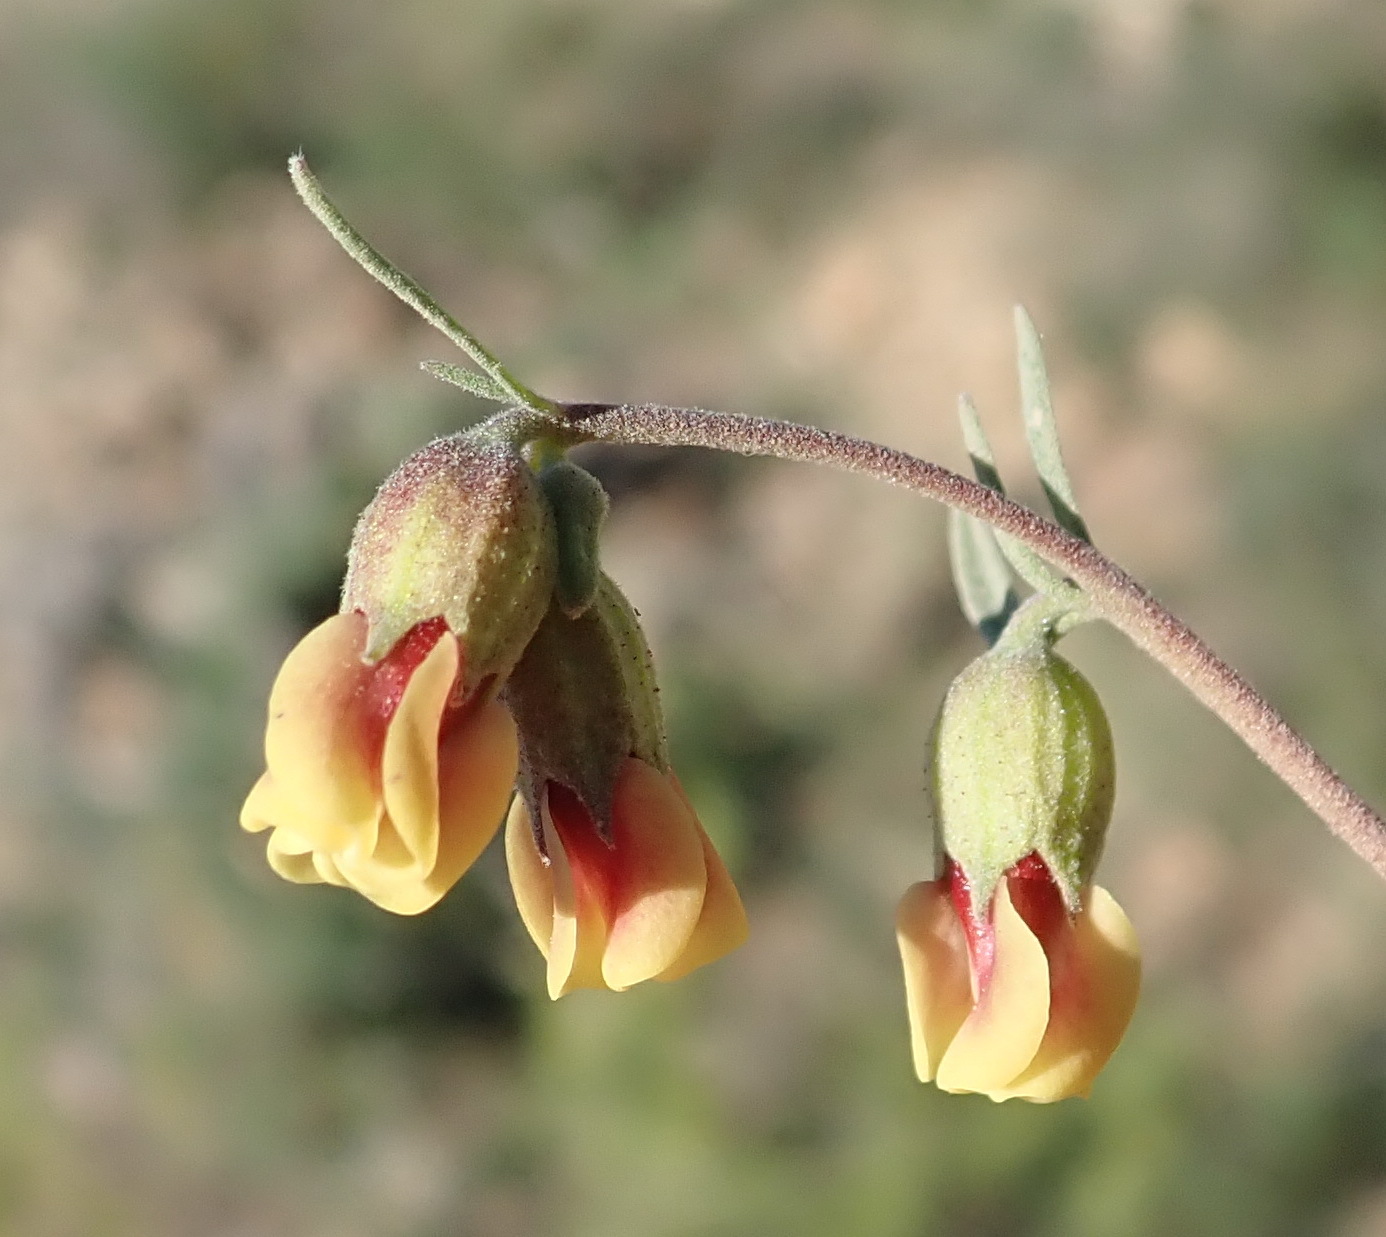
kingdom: Plantae
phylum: Tracheophyta
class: Magnoliopsida
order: Malvales
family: Malvaceae
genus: Hermannia
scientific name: Hermannia gracilis
